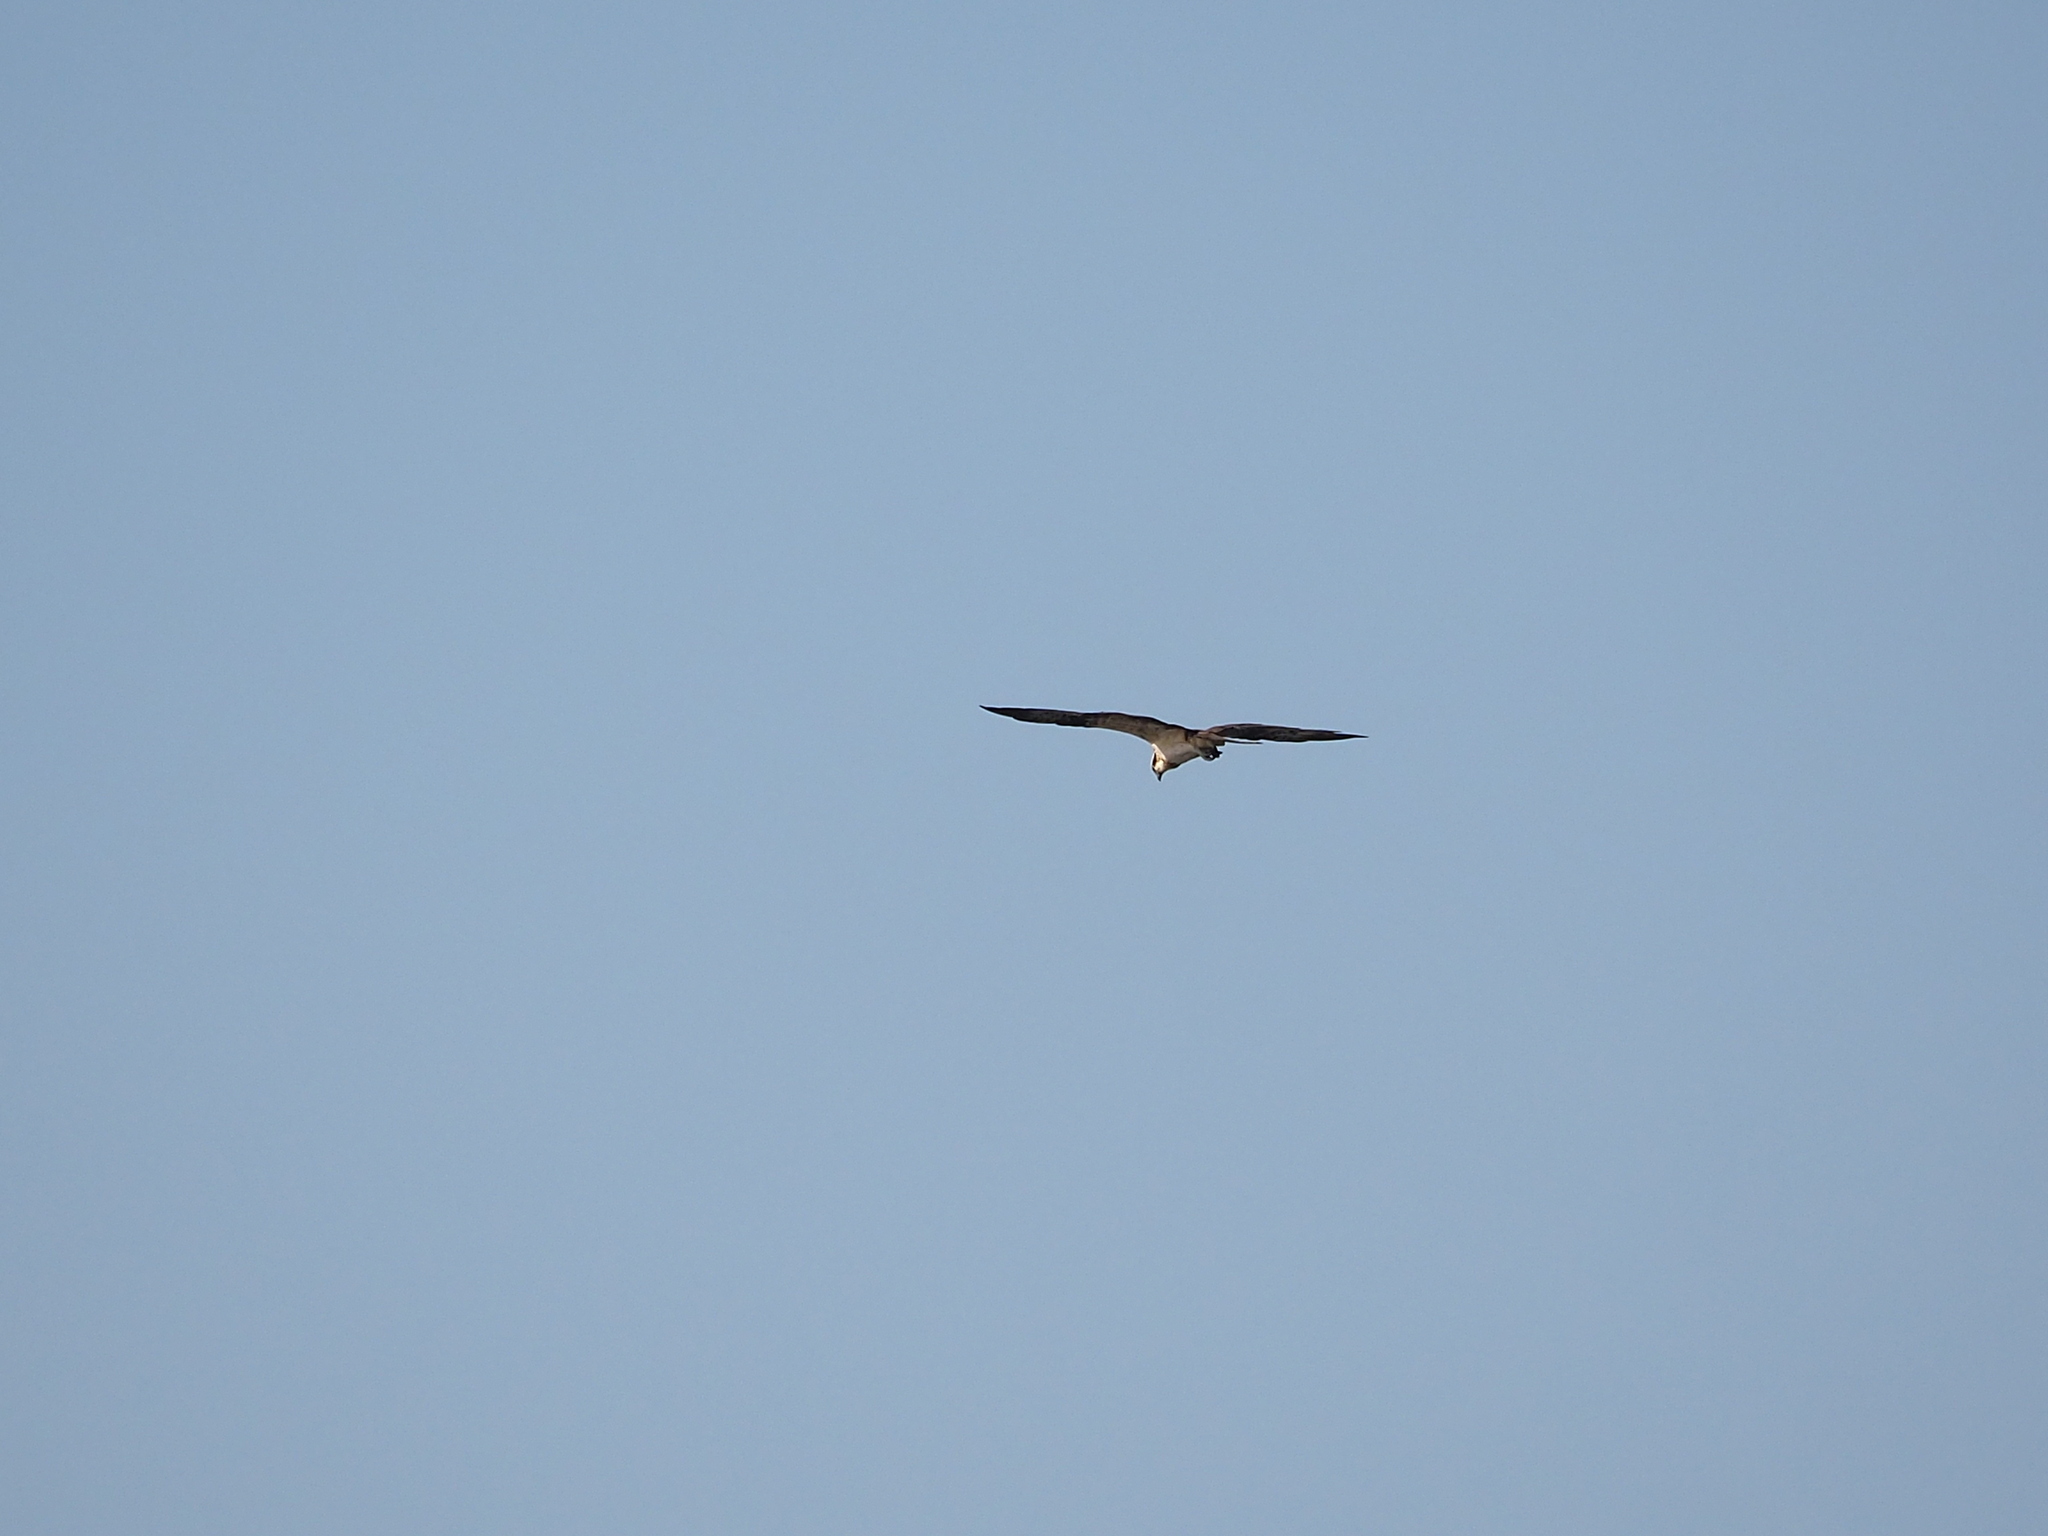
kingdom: Animalia
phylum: Chordata
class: Aves
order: Accipitriformes
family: Pandionidae
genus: Pandion
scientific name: Pandion haliaetus
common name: Osprey
